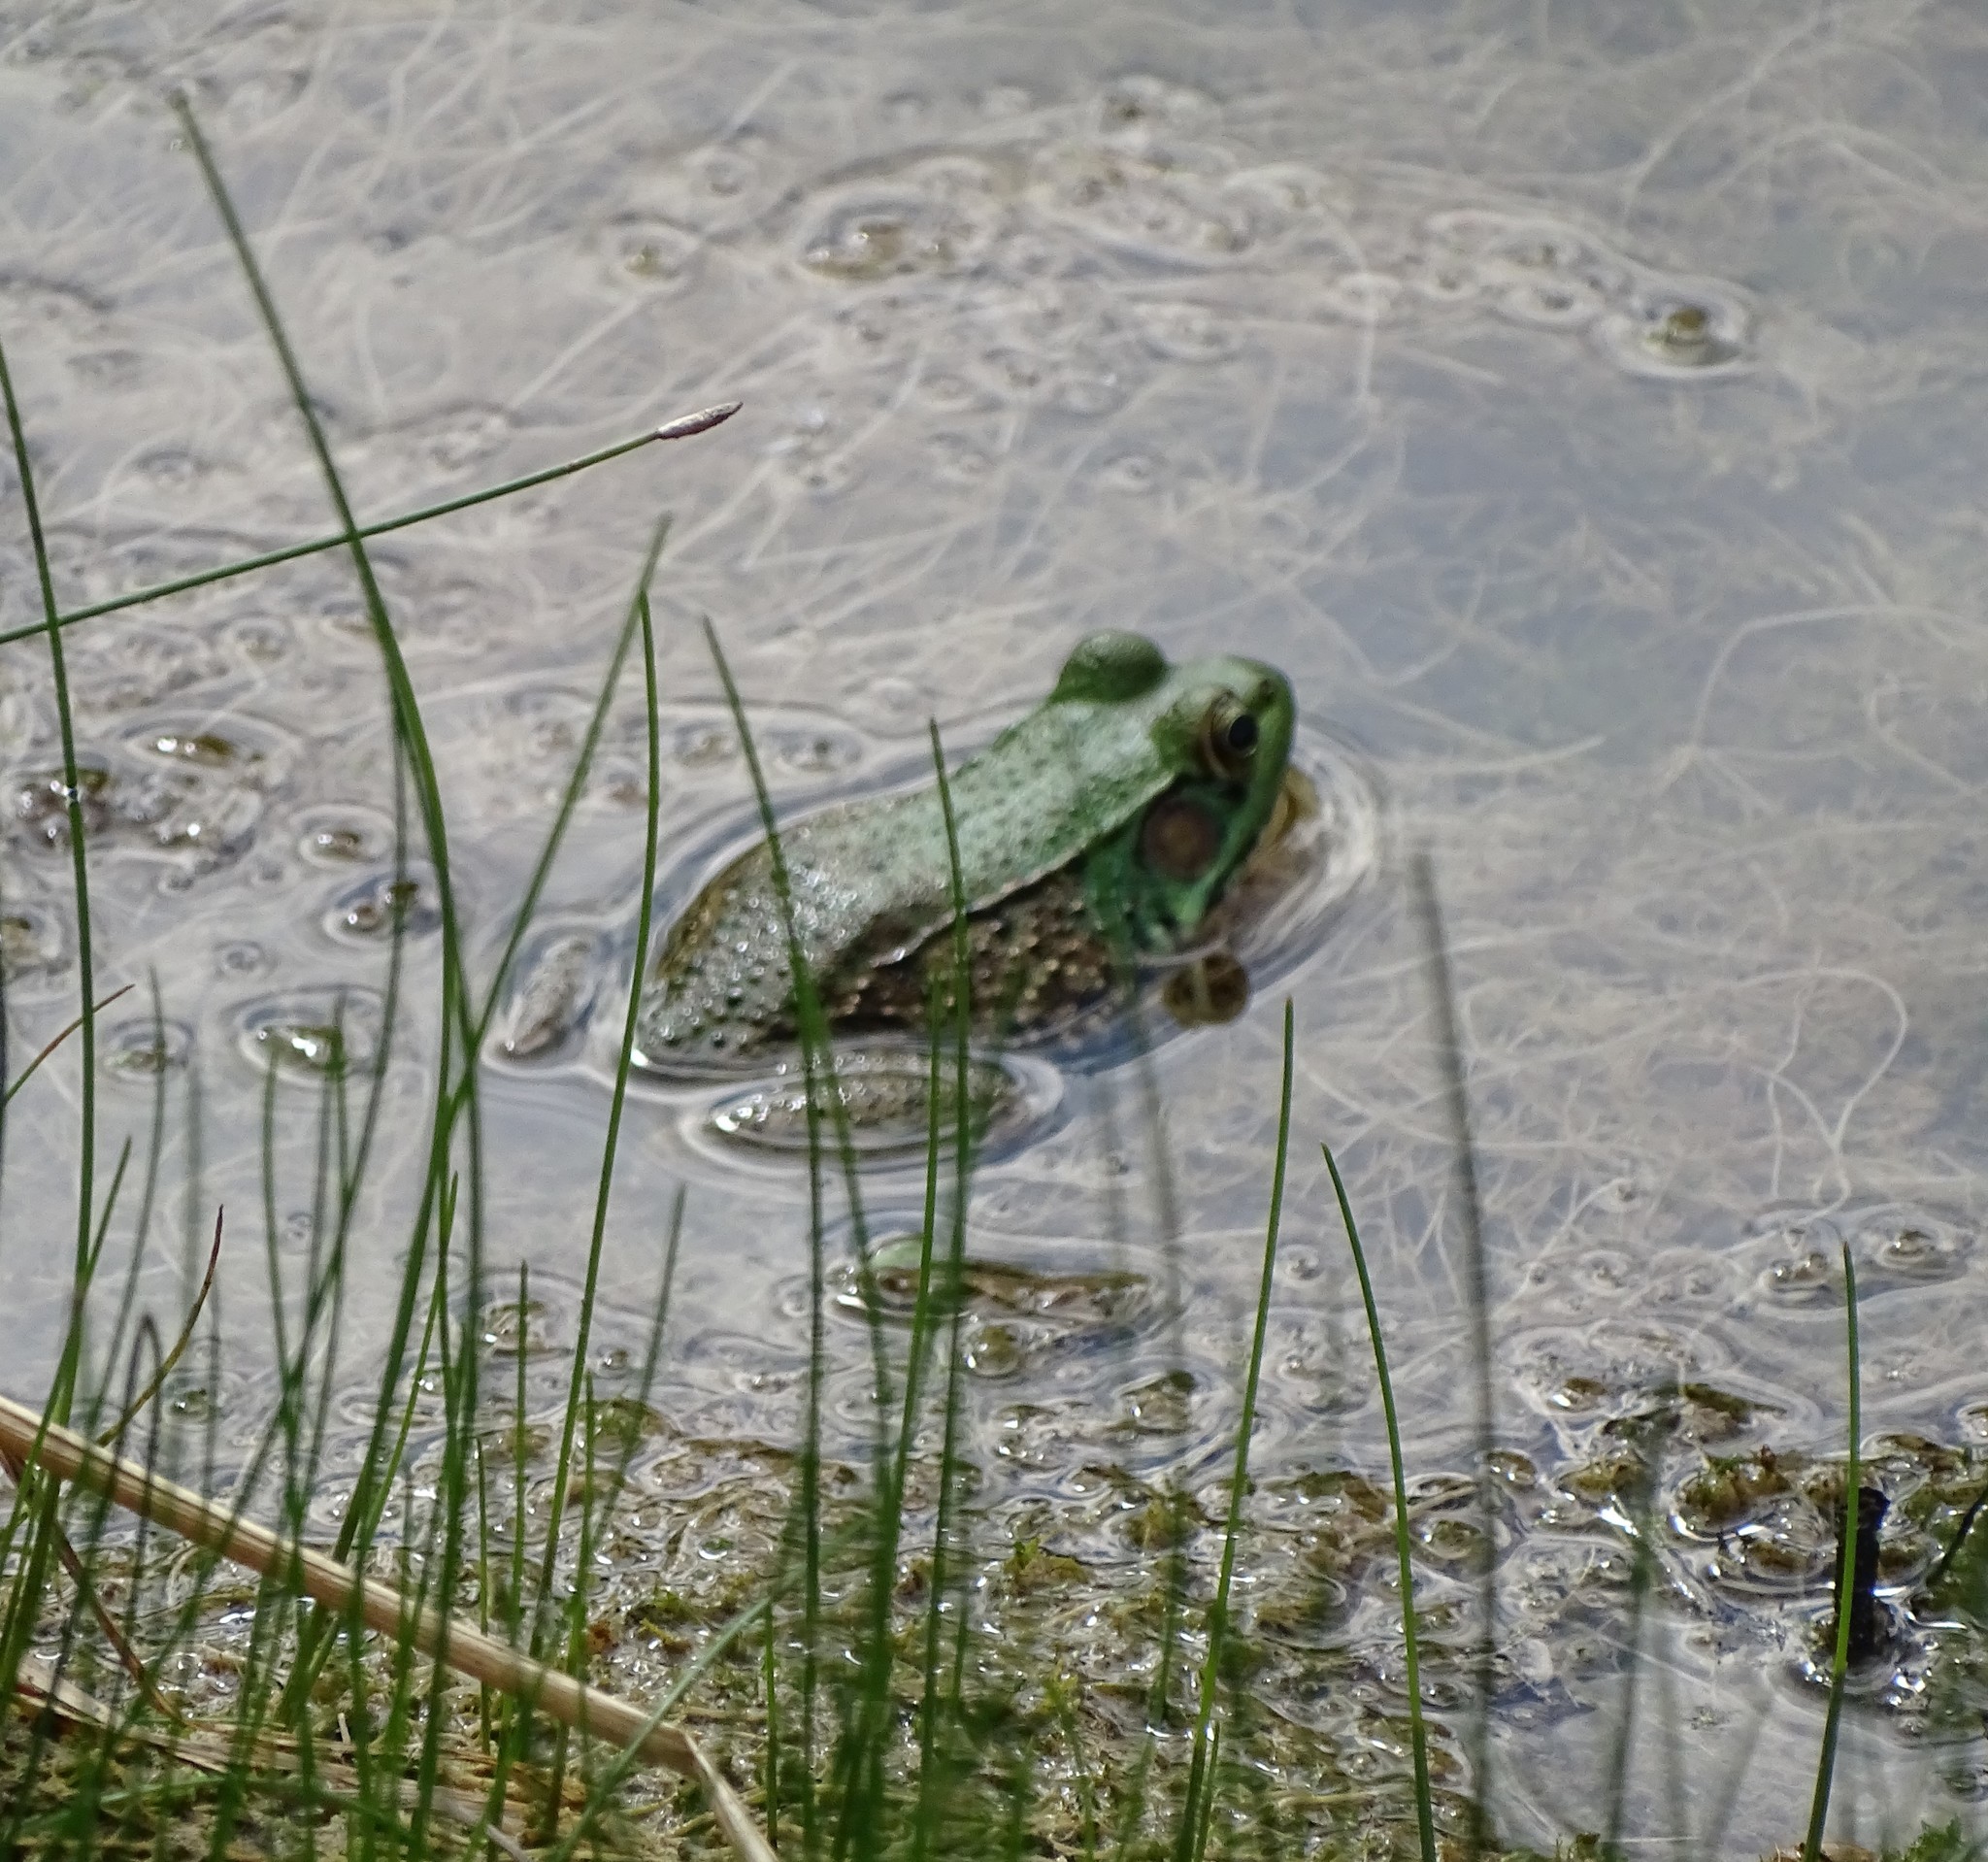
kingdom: Animalia
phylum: Chordata
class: Amphibia
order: Anura
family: Ranidae
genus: Lithobates
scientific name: Lithobates clamitans
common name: Green frog
